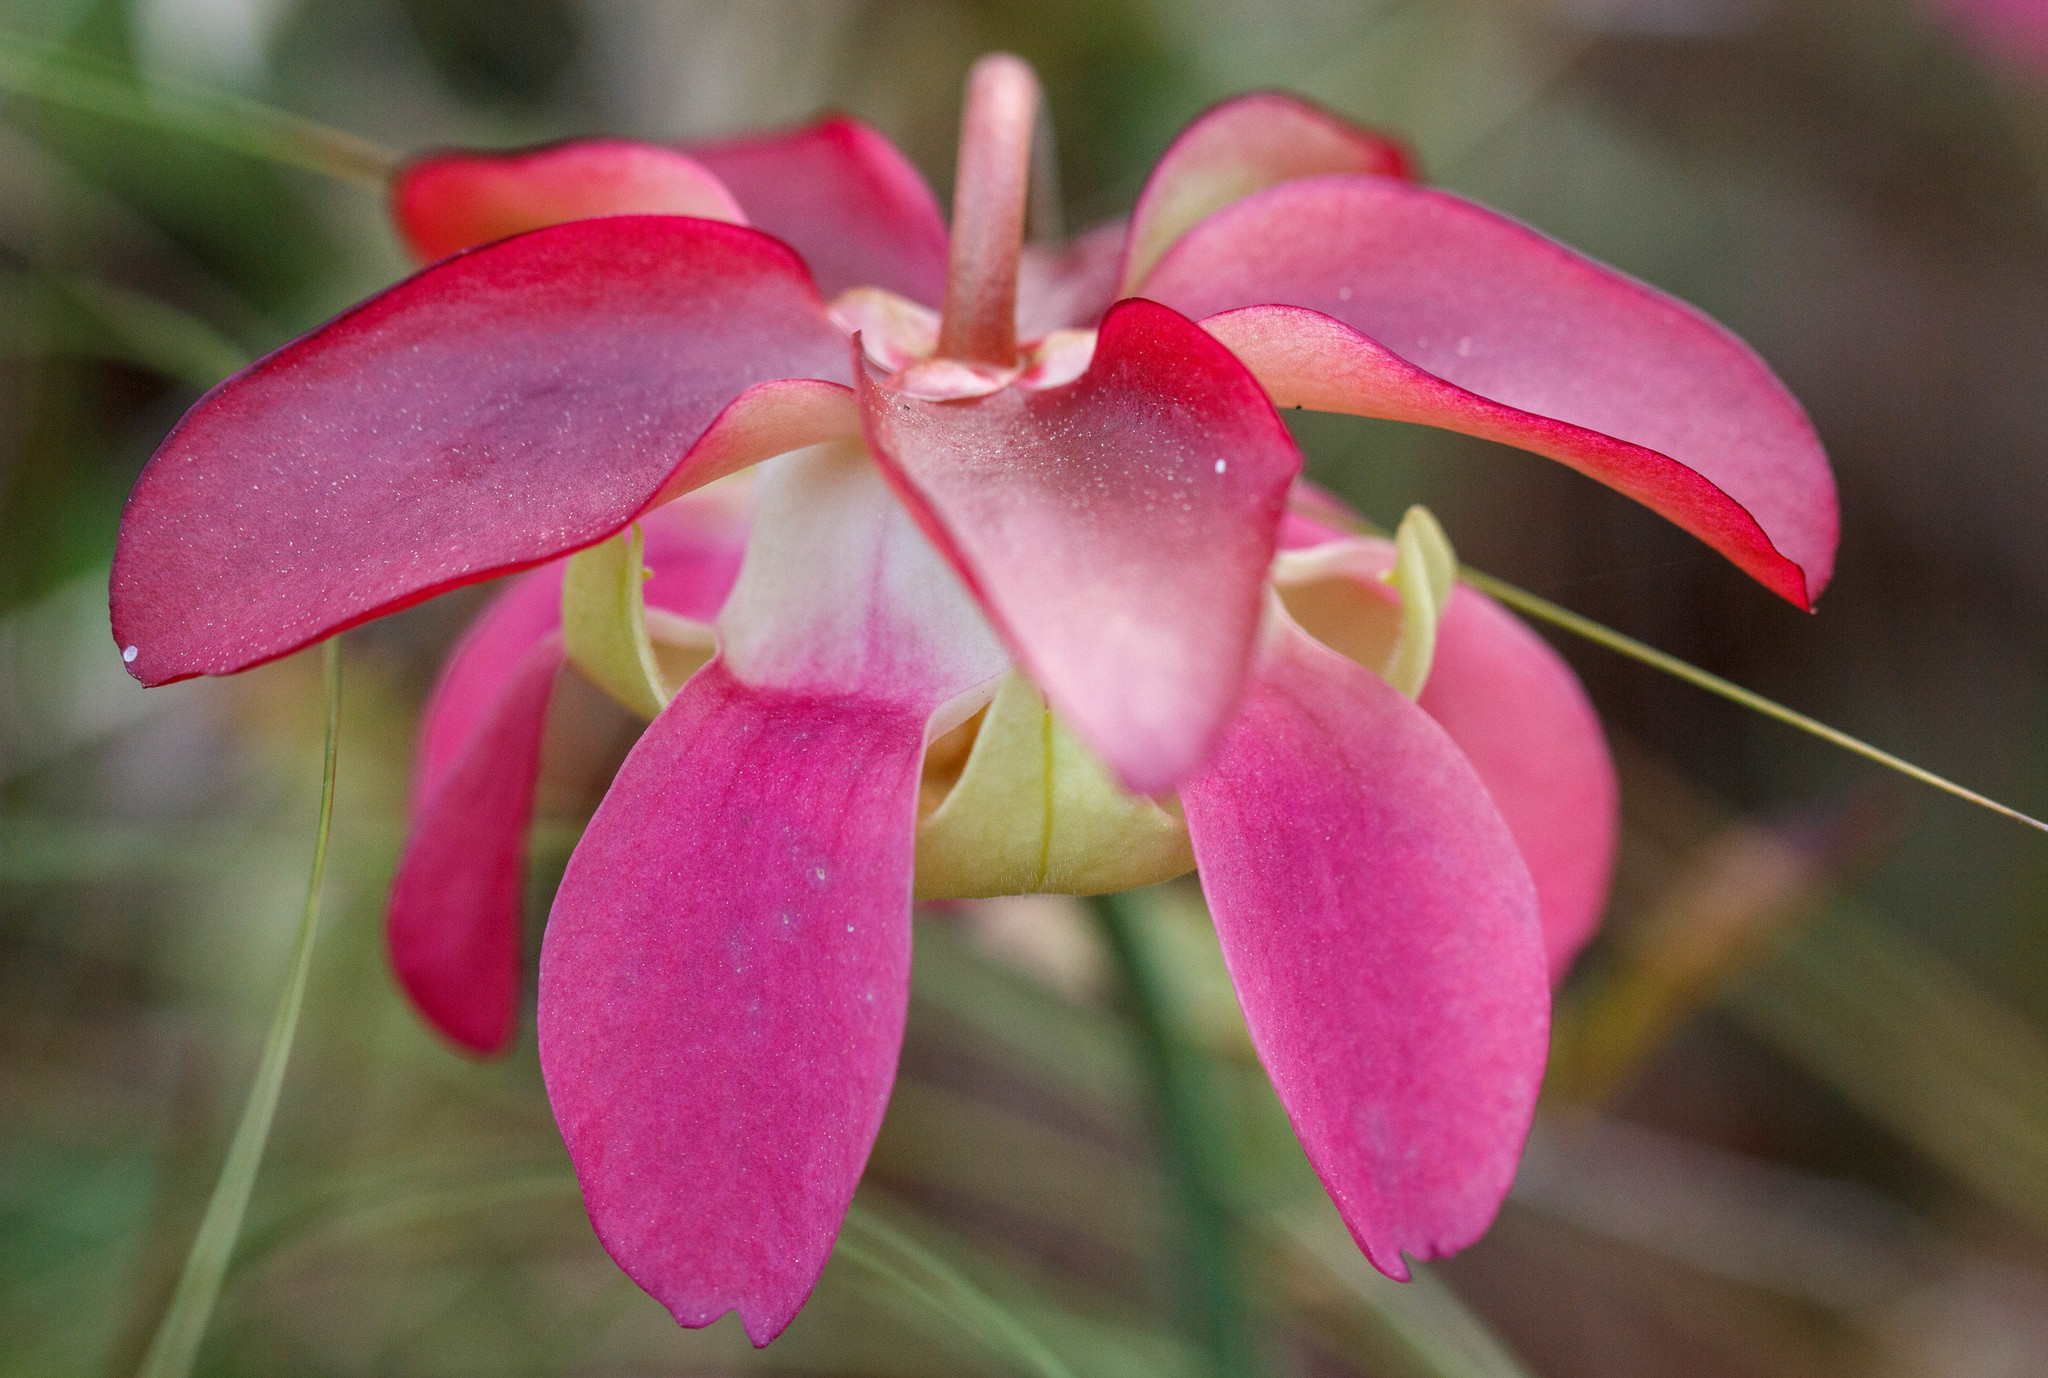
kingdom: Plantae
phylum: Tracheophyta
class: Magnoliopsida
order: Ericales
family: Sarraceniaceae
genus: Sarracenia
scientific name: Sarracenia rosea
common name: Pink pitcherplant
